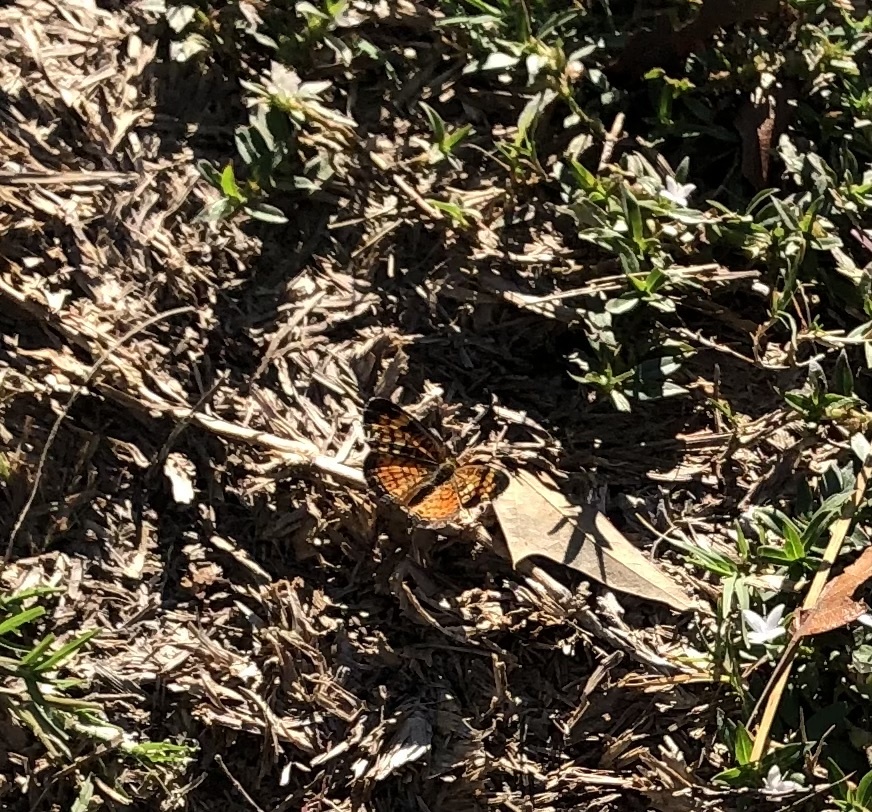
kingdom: Animalia
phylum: Arthropoda
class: Insecta
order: Lepidoptera
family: Nymphalidae
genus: Phyciodes
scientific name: Phyciodes tharos
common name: Pearl crescent
